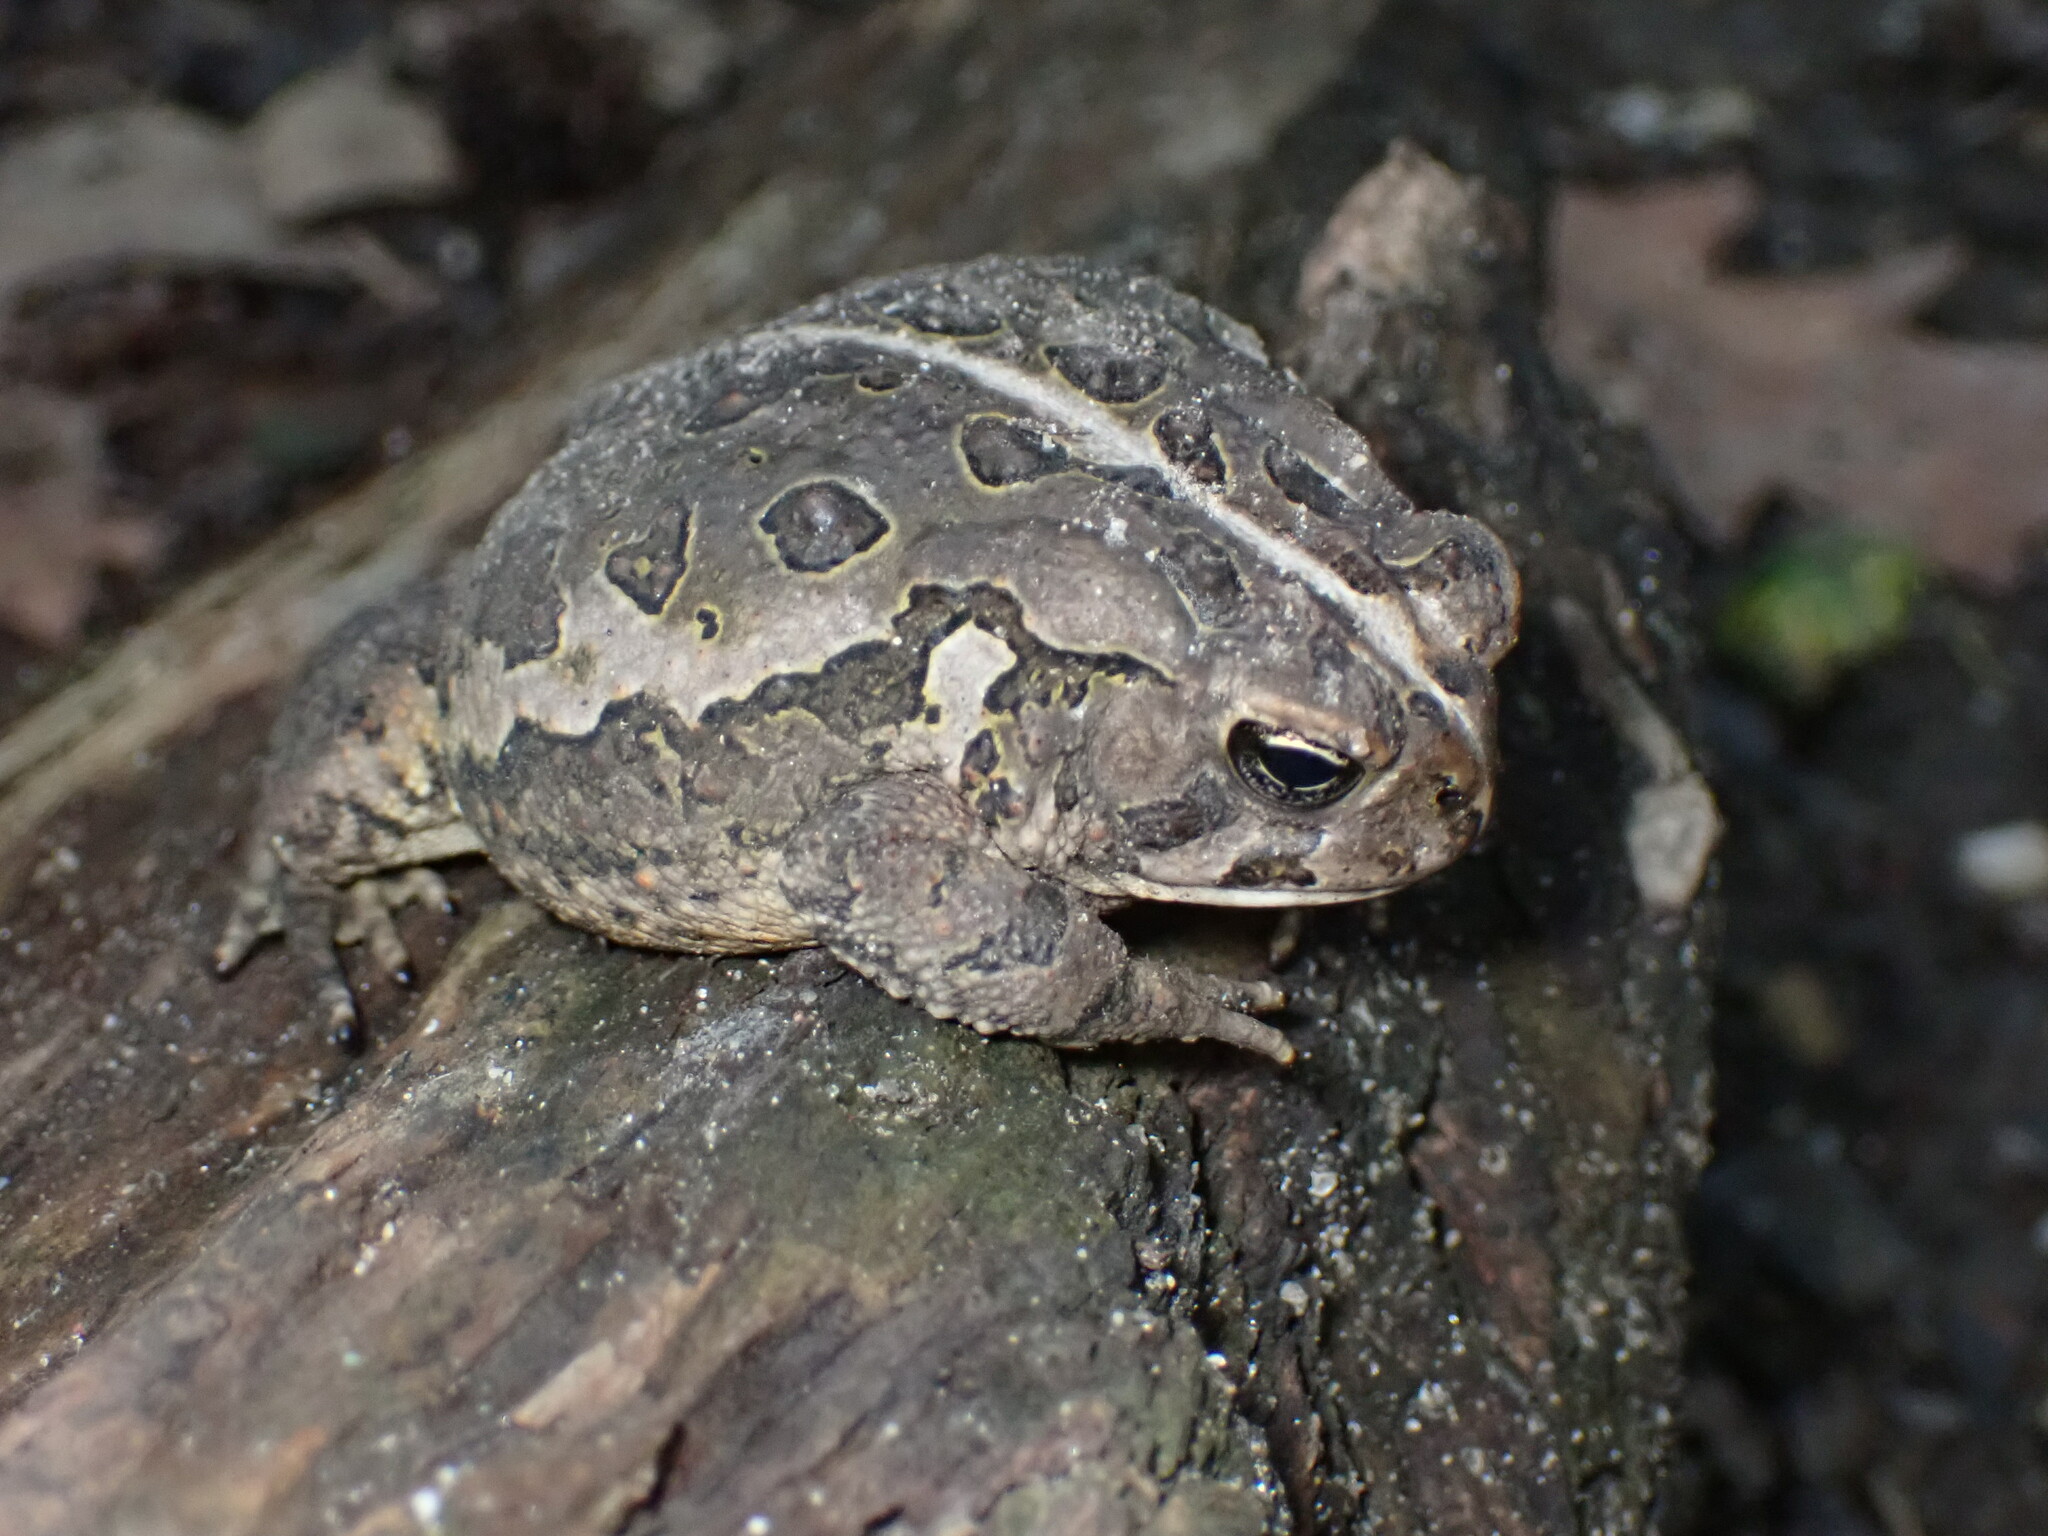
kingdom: Animalia
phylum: Chordata
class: Amphibia
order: Anura
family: Bufonidae
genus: Anaxyrus
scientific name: Anaxyrus fowleri
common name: Fowler's toad
